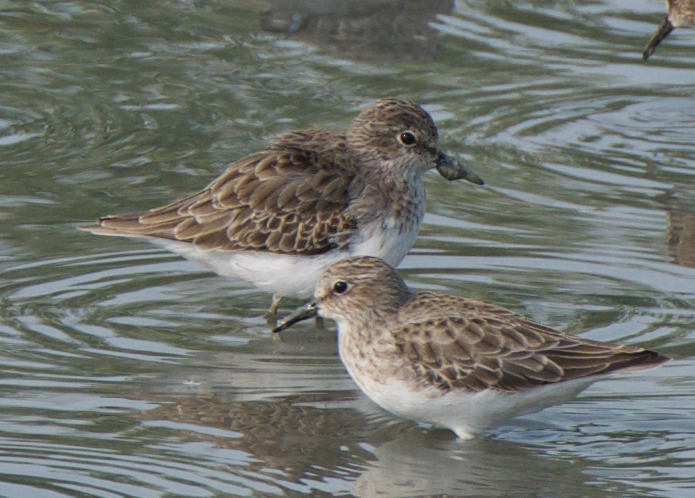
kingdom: Animalia
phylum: Chordata
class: Aves
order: Charadriiformes
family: Scolopacidae
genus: Calidris
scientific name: Calidris minutilla
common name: Least sandpiper
